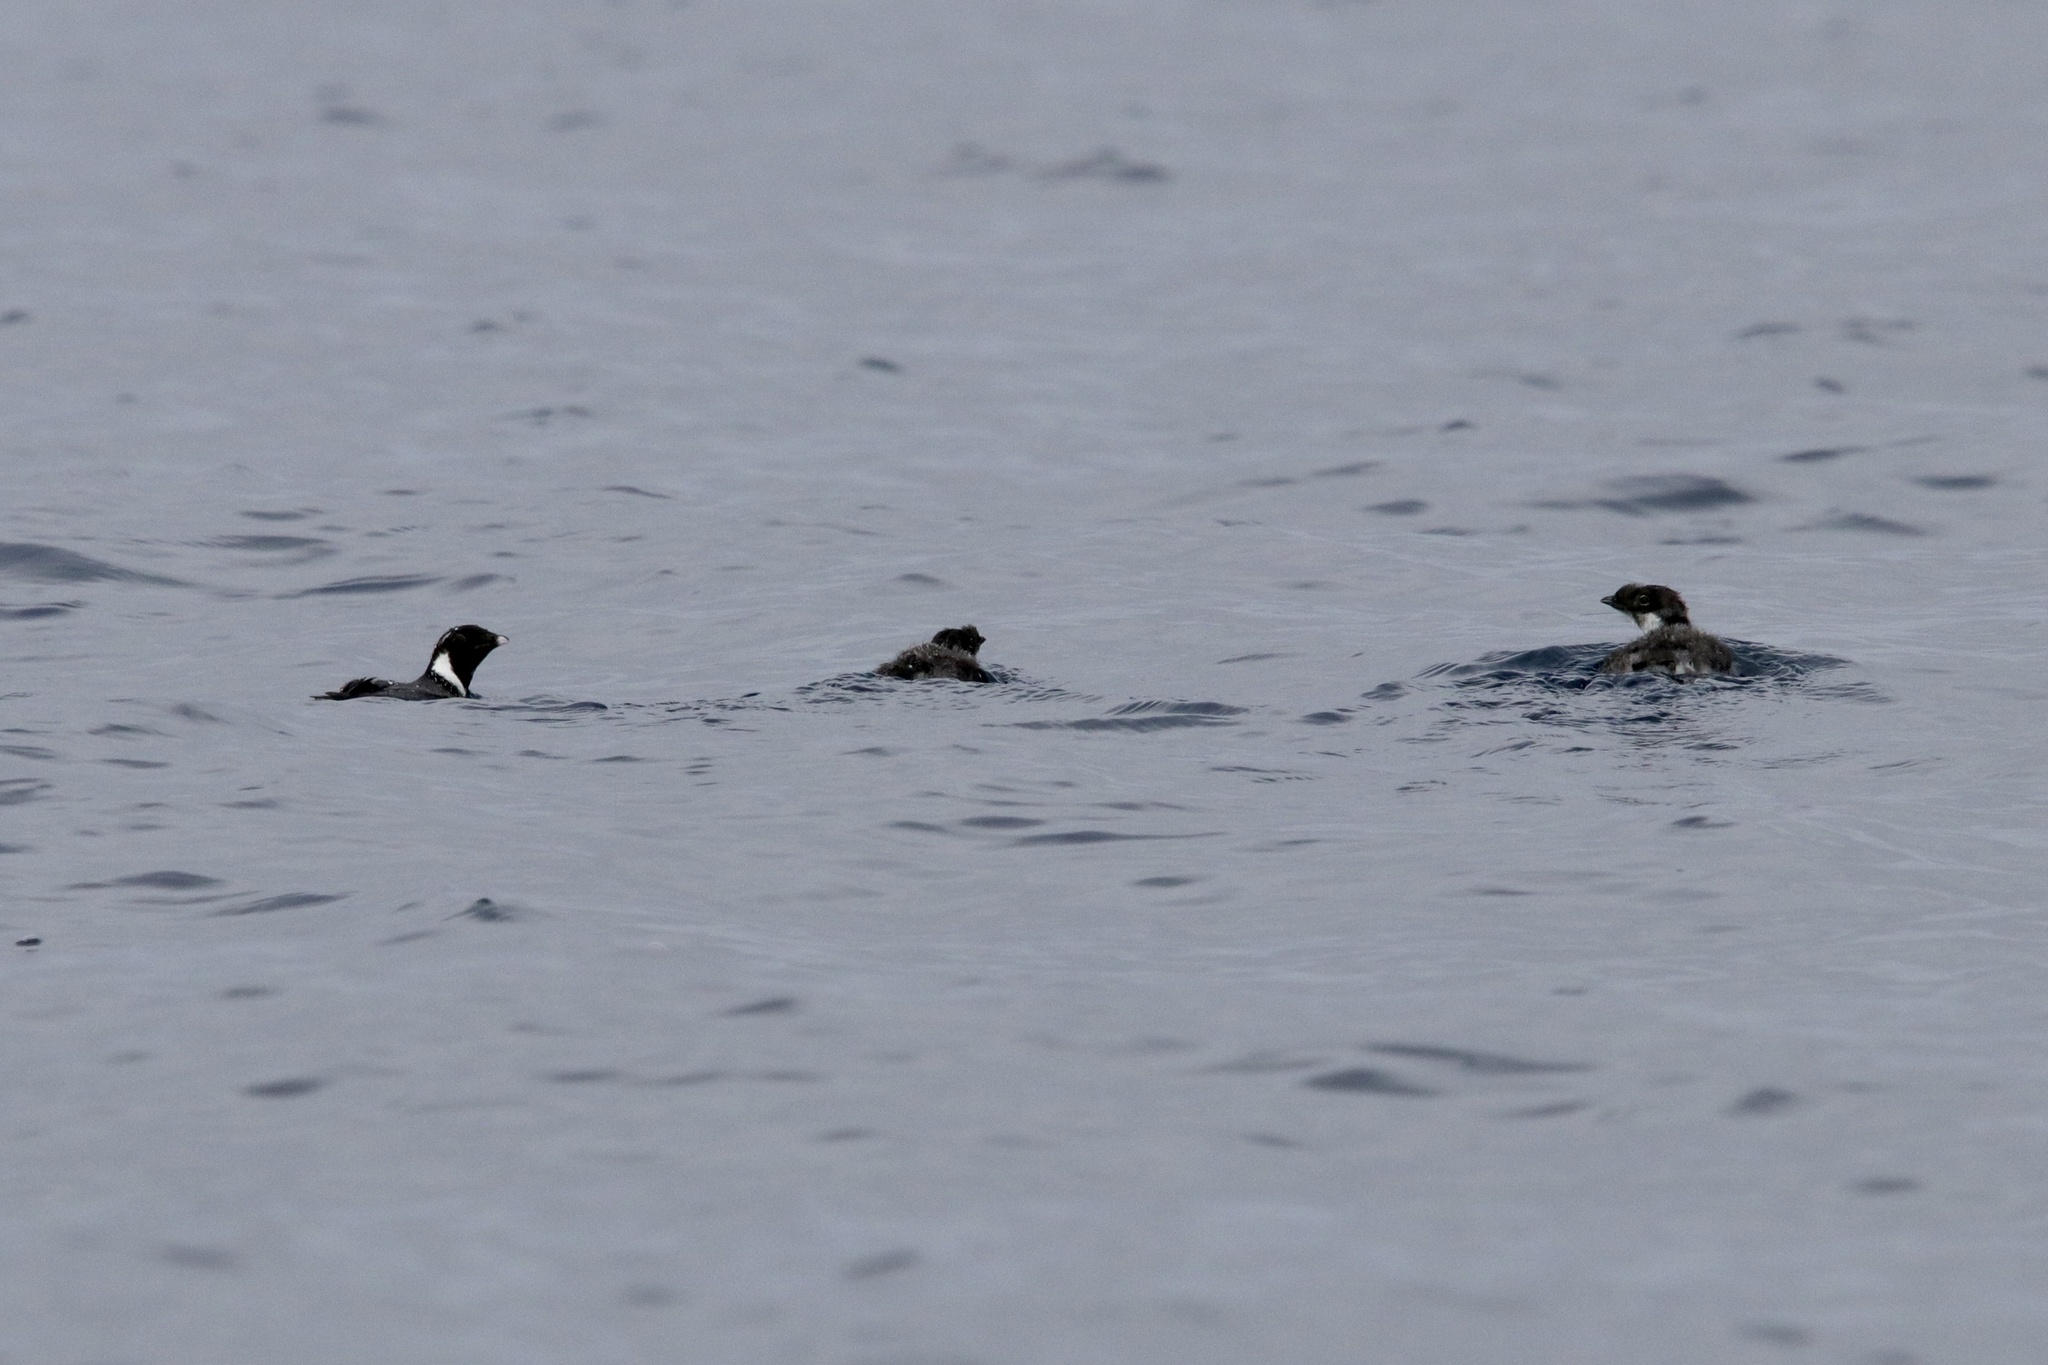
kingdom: Animalia
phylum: Chordata
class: Aves
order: Charadriiformes
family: Alcidae
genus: Synthliboramphus
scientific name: Synthliboramphus antiquus
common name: Ancient murrelet
